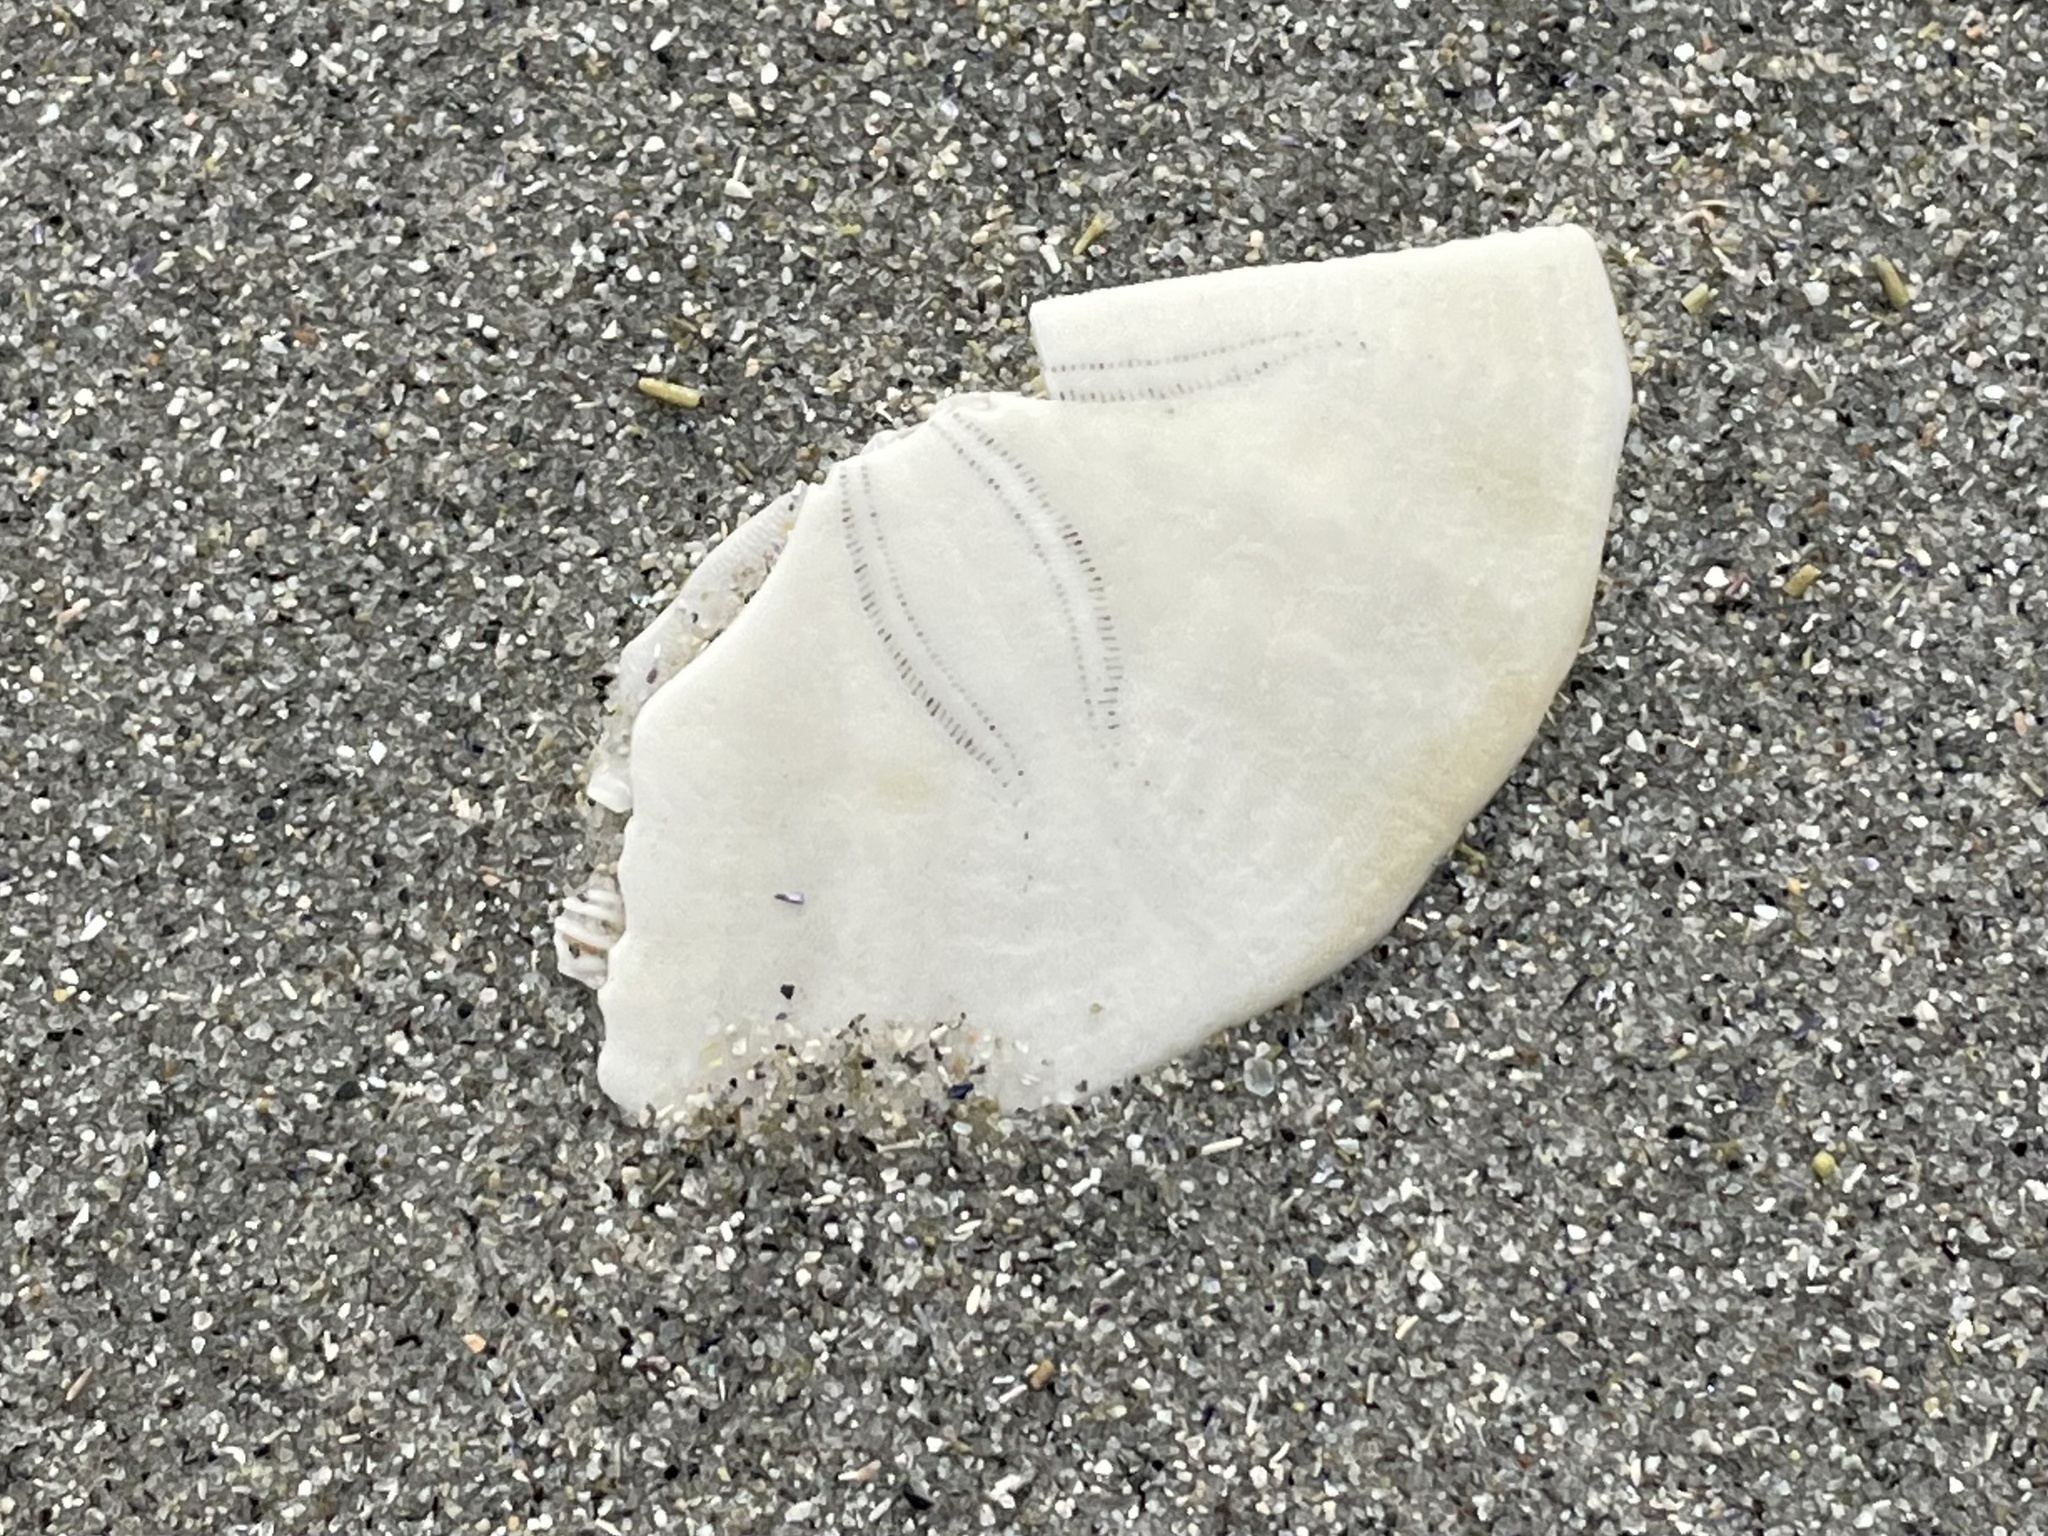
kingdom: Animalia
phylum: Echinodermata
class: Echinoidea
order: Echinolampadacea
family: Echinarachniidae
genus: Echinarachnius
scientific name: Echinarachnius parma
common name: Common sand dollar
